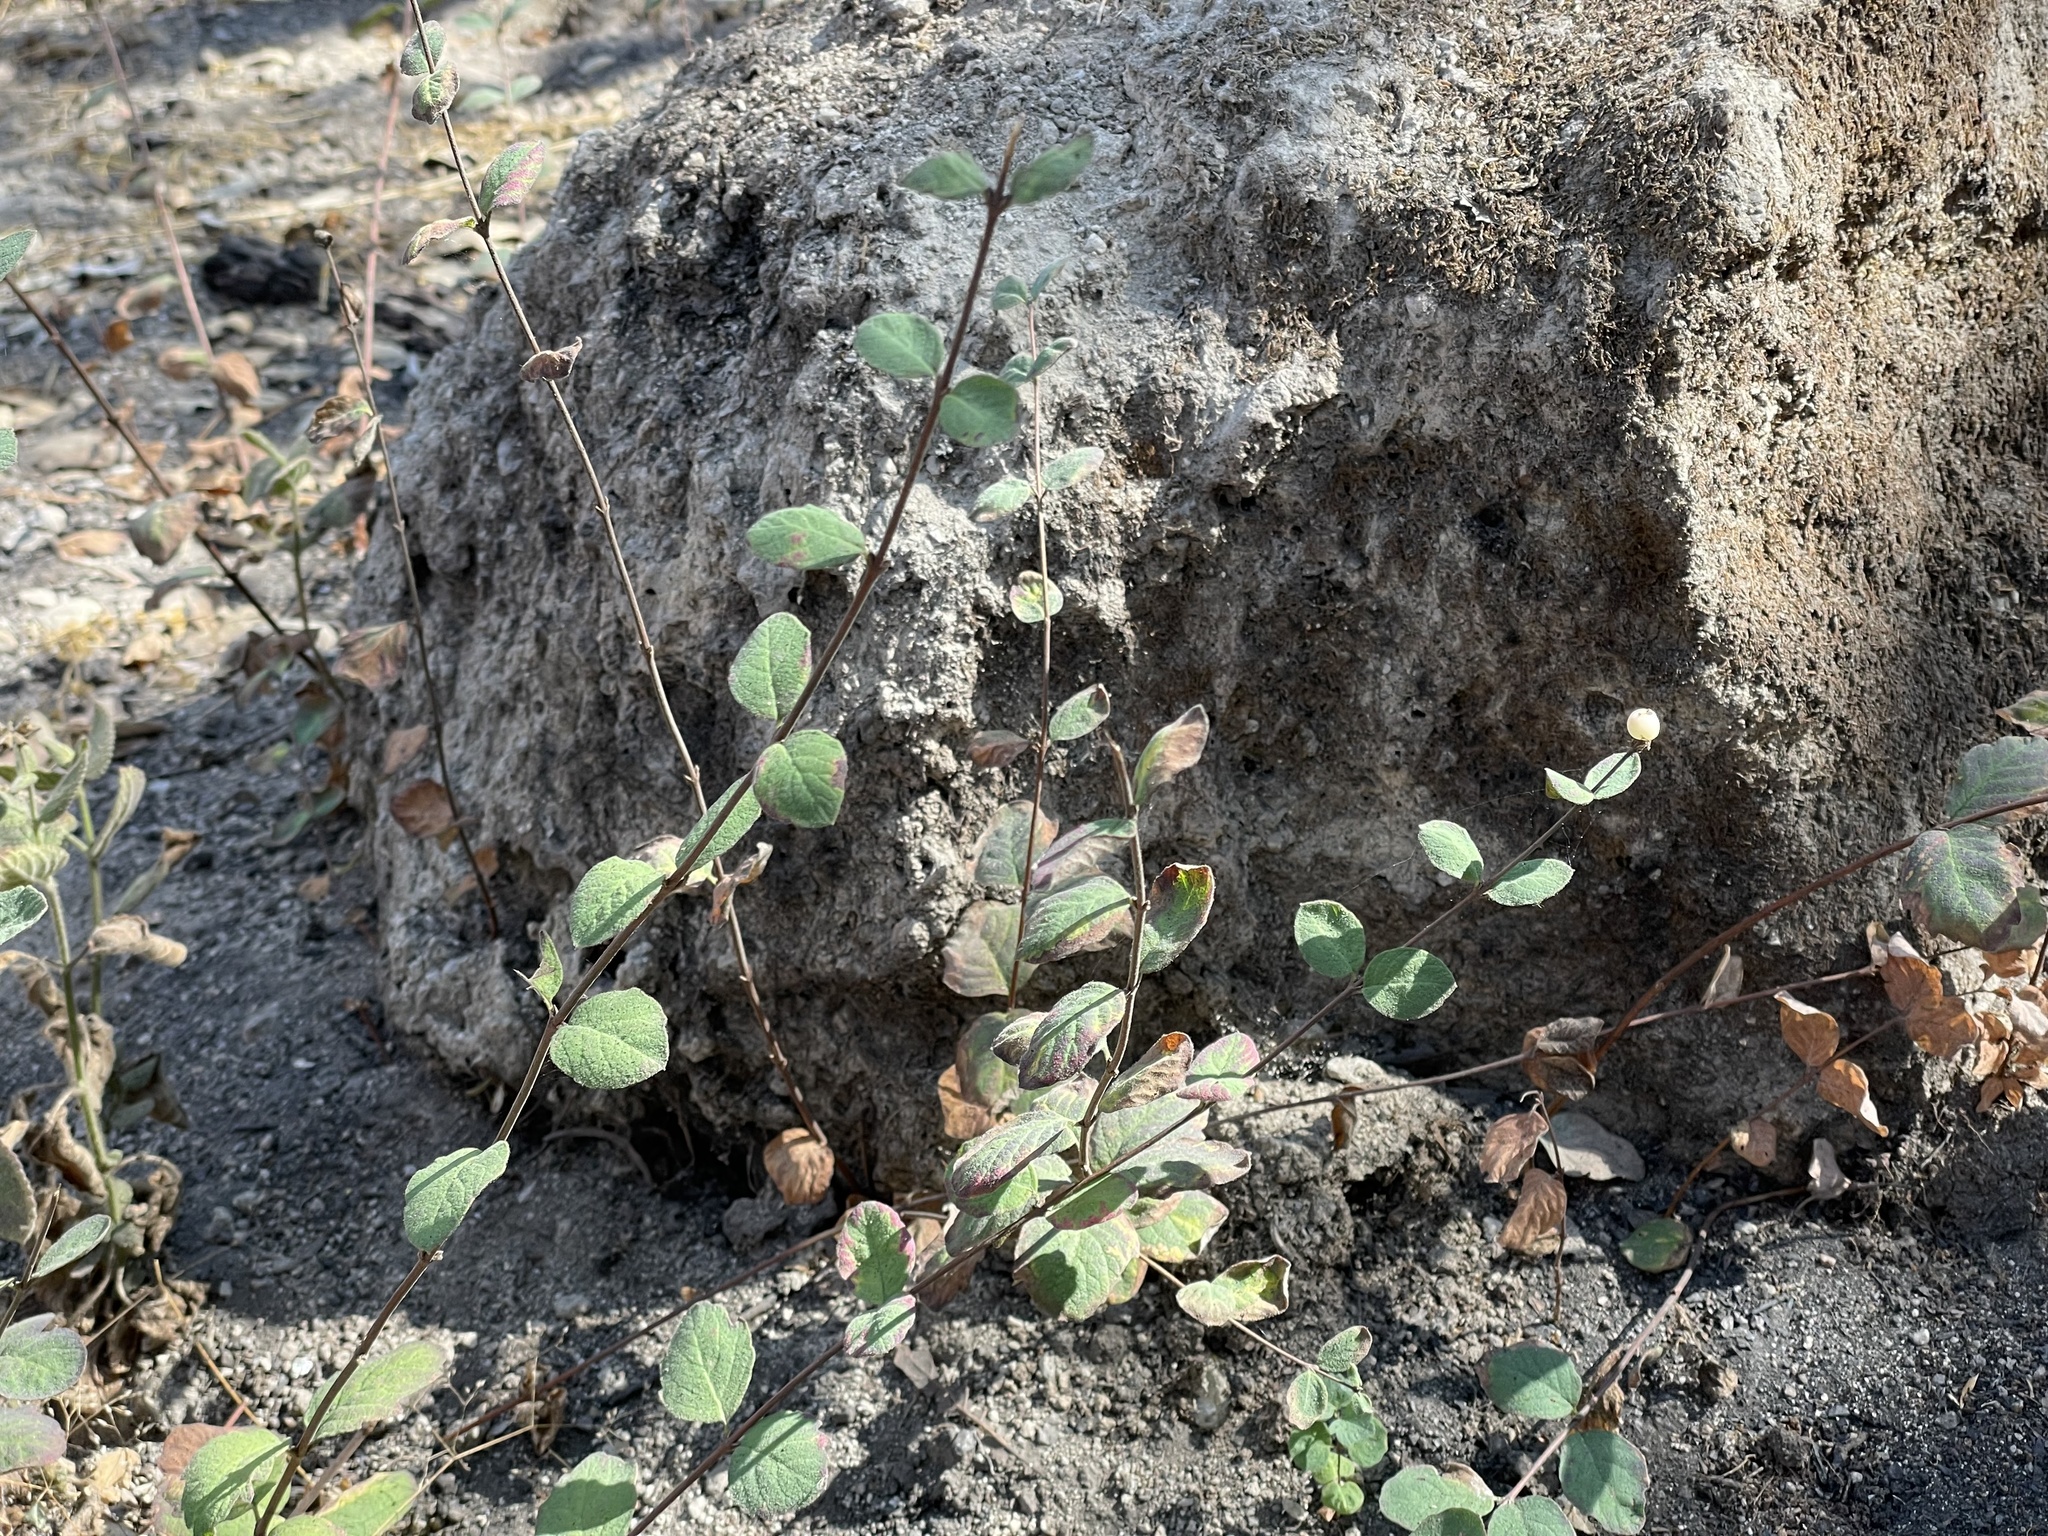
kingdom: Plantae
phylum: Tracheophyta
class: Magnoliopsida
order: Dipsacales
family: Caprifoliaceae
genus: Symphoricarpos
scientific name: Symphoricarpos mollis
